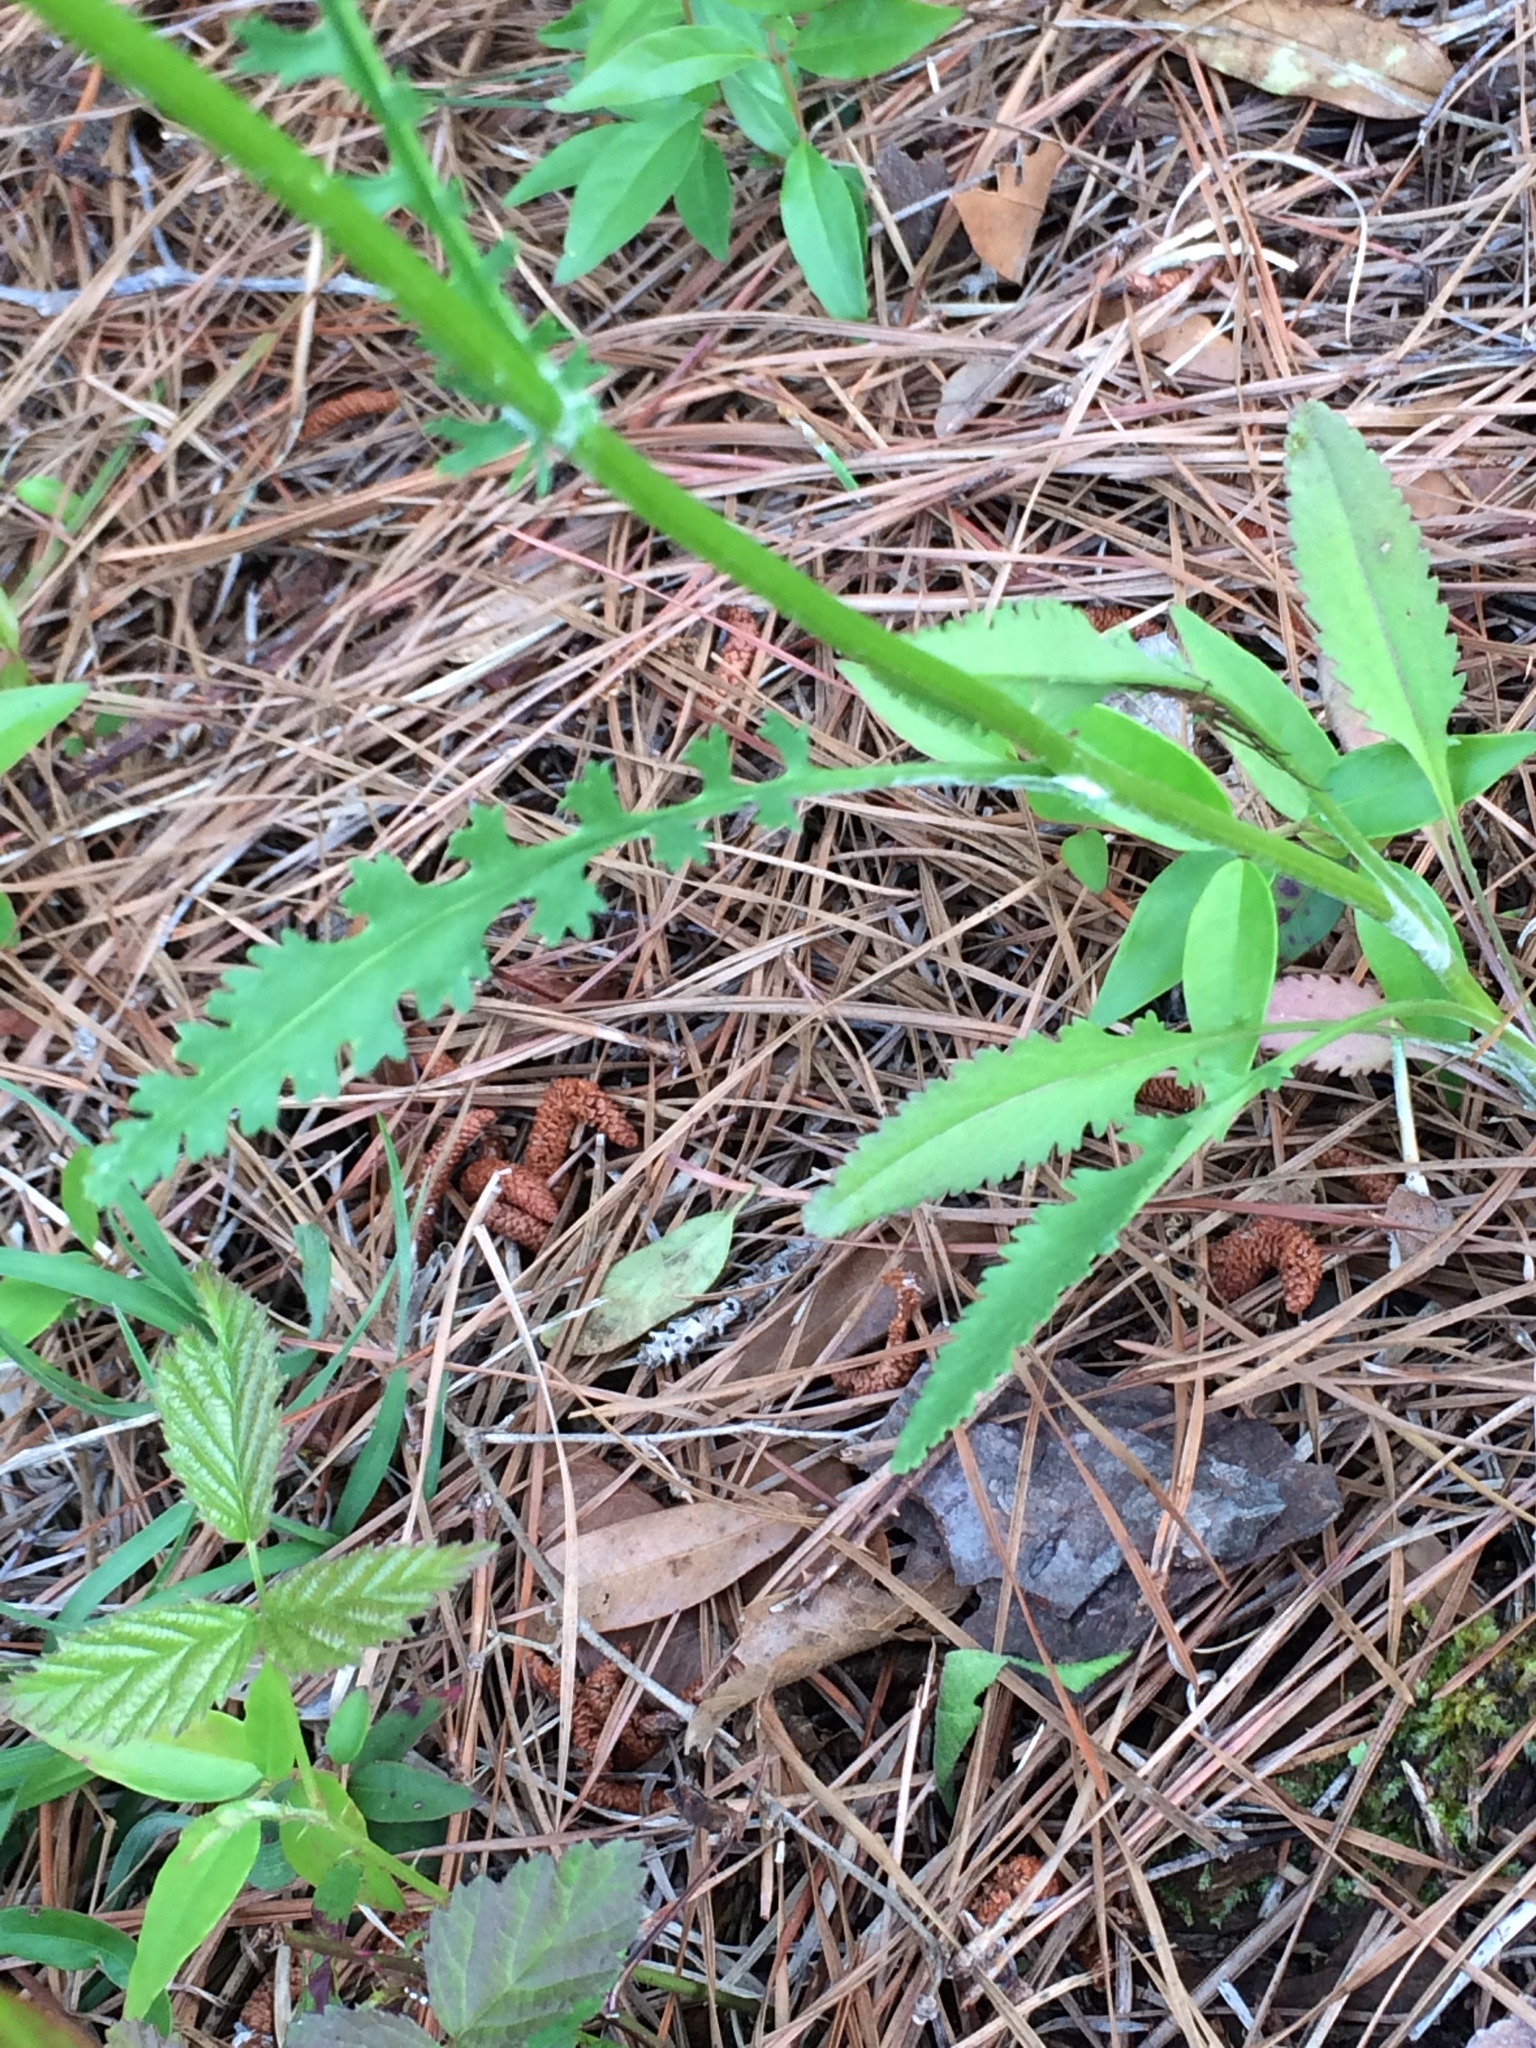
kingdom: Plantae
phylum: Tracheophyta
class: Magnoliopsida
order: Asterales
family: Asteraceae
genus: Packera
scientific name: Packera anonyma
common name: Small ragwort
